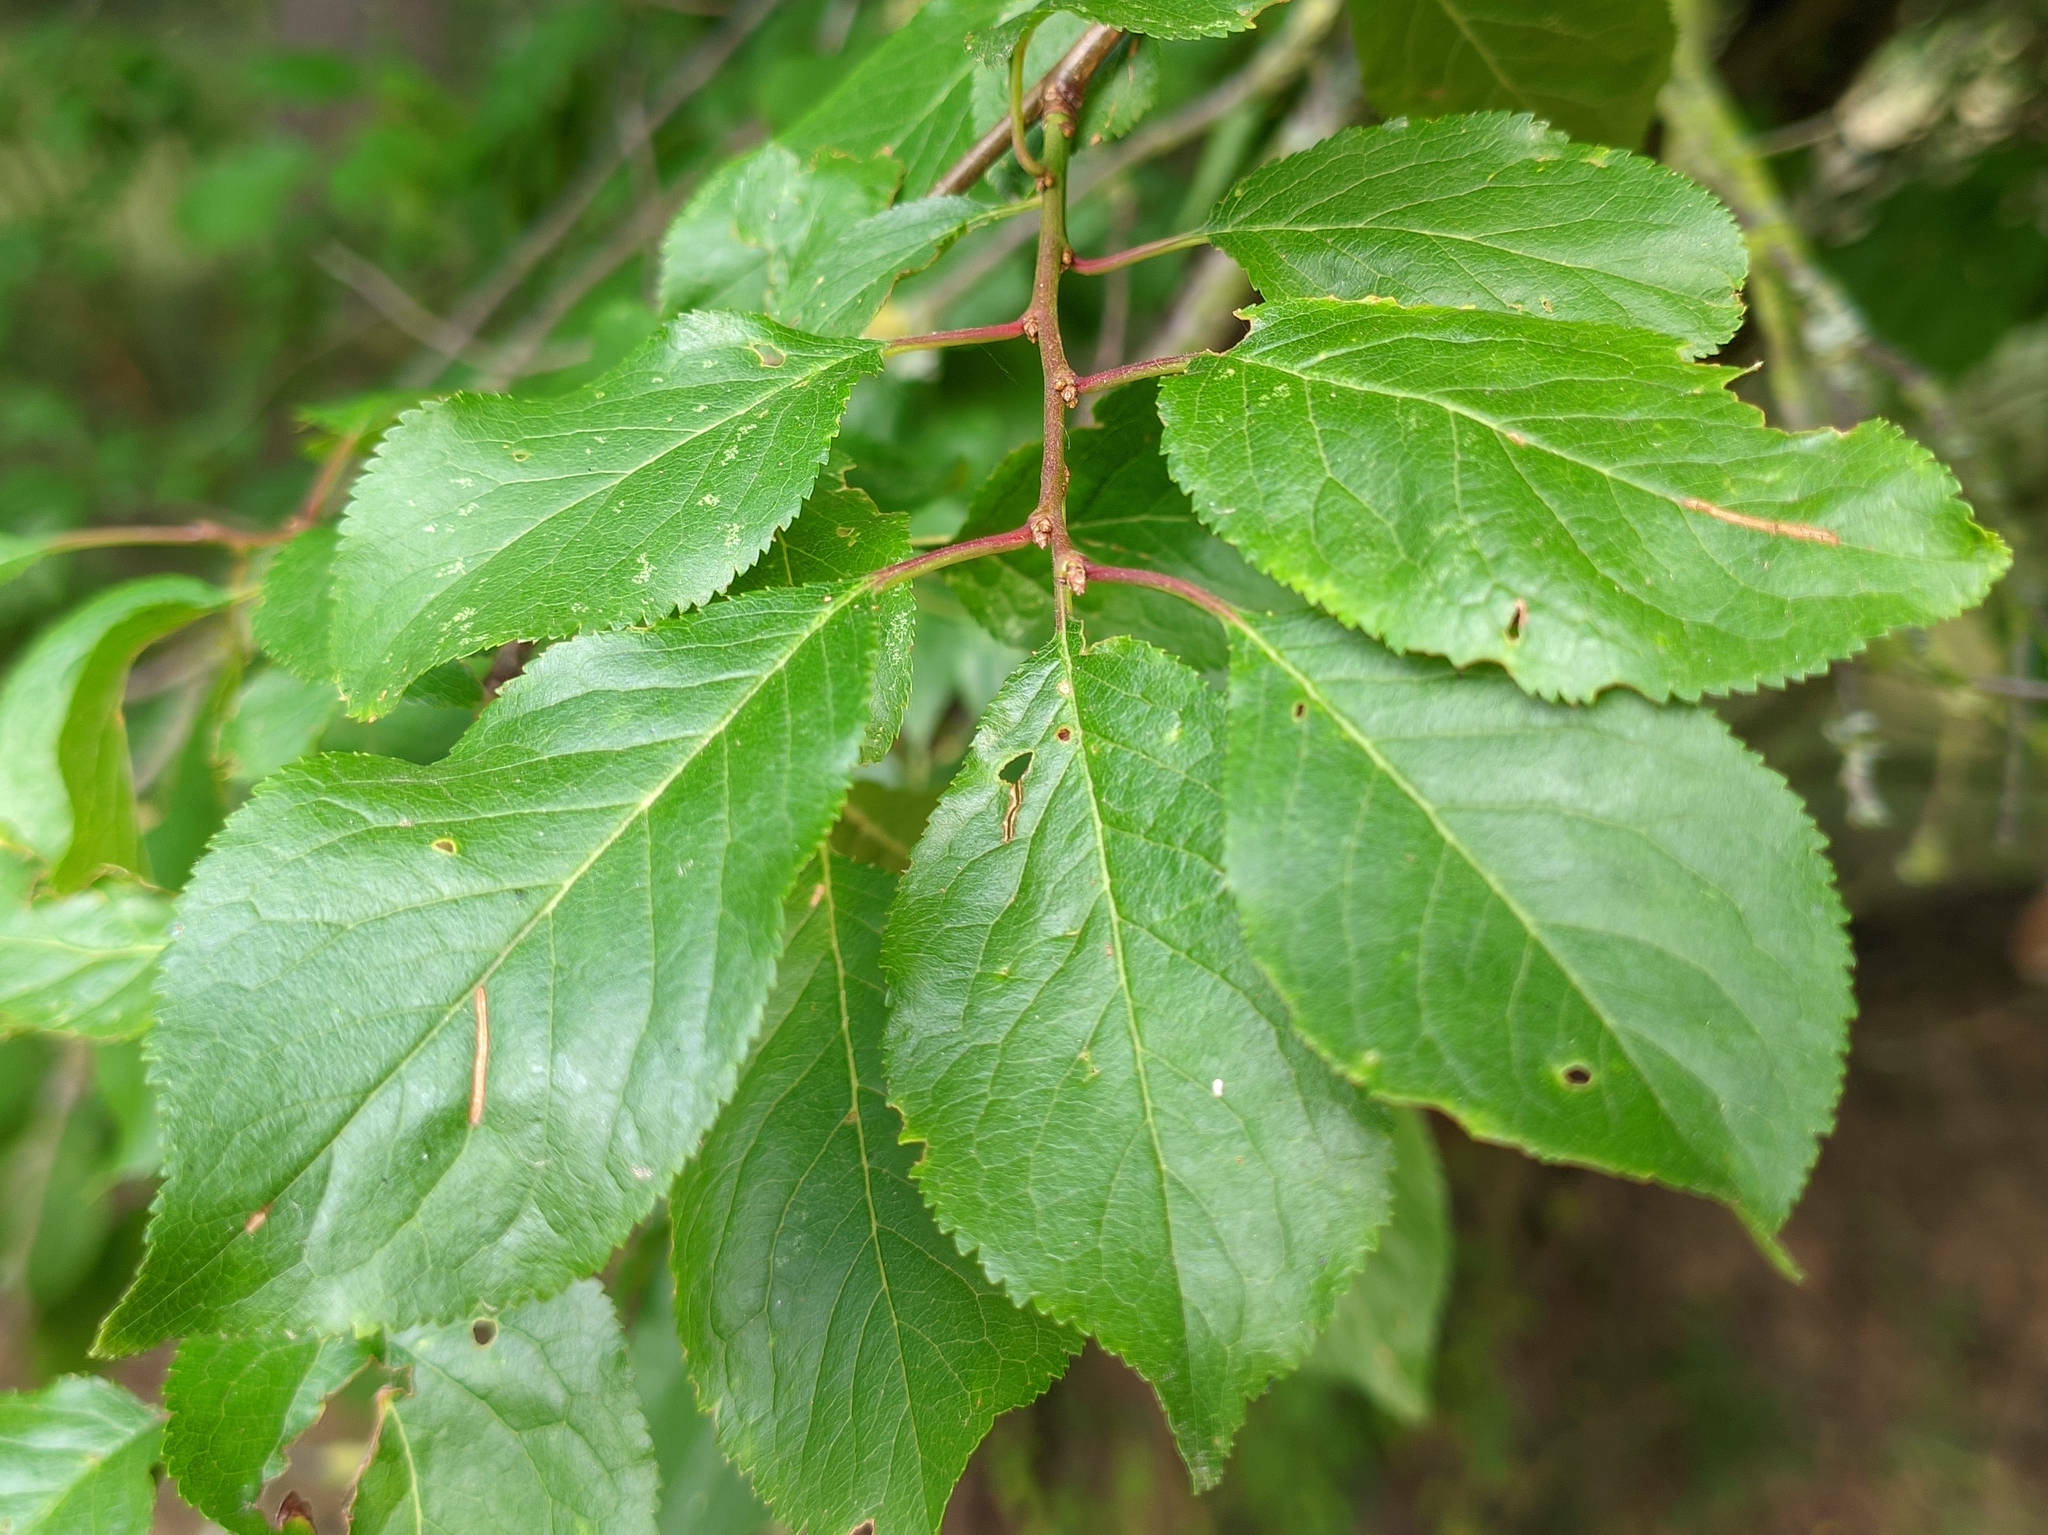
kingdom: Plantae
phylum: Tracheophyta
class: Magnoliopsida
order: Rosales
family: Rosaceae
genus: Prunus
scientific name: Prunus cerasifera
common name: Cherry plum
